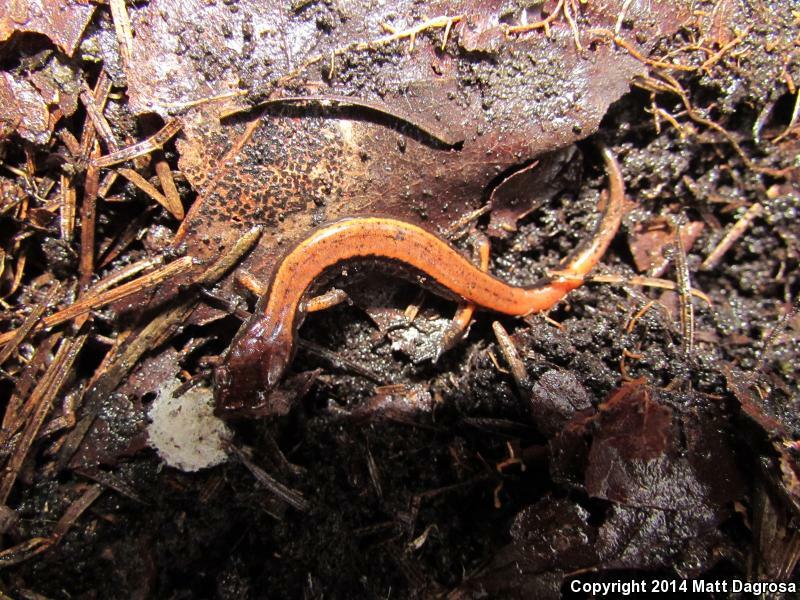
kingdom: Animalia
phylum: Chordata
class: Amphibia
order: Caudata
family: Plethodontidae
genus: Plethodon
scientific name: Plethodon vehiculum
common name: Western red-backed salamander
